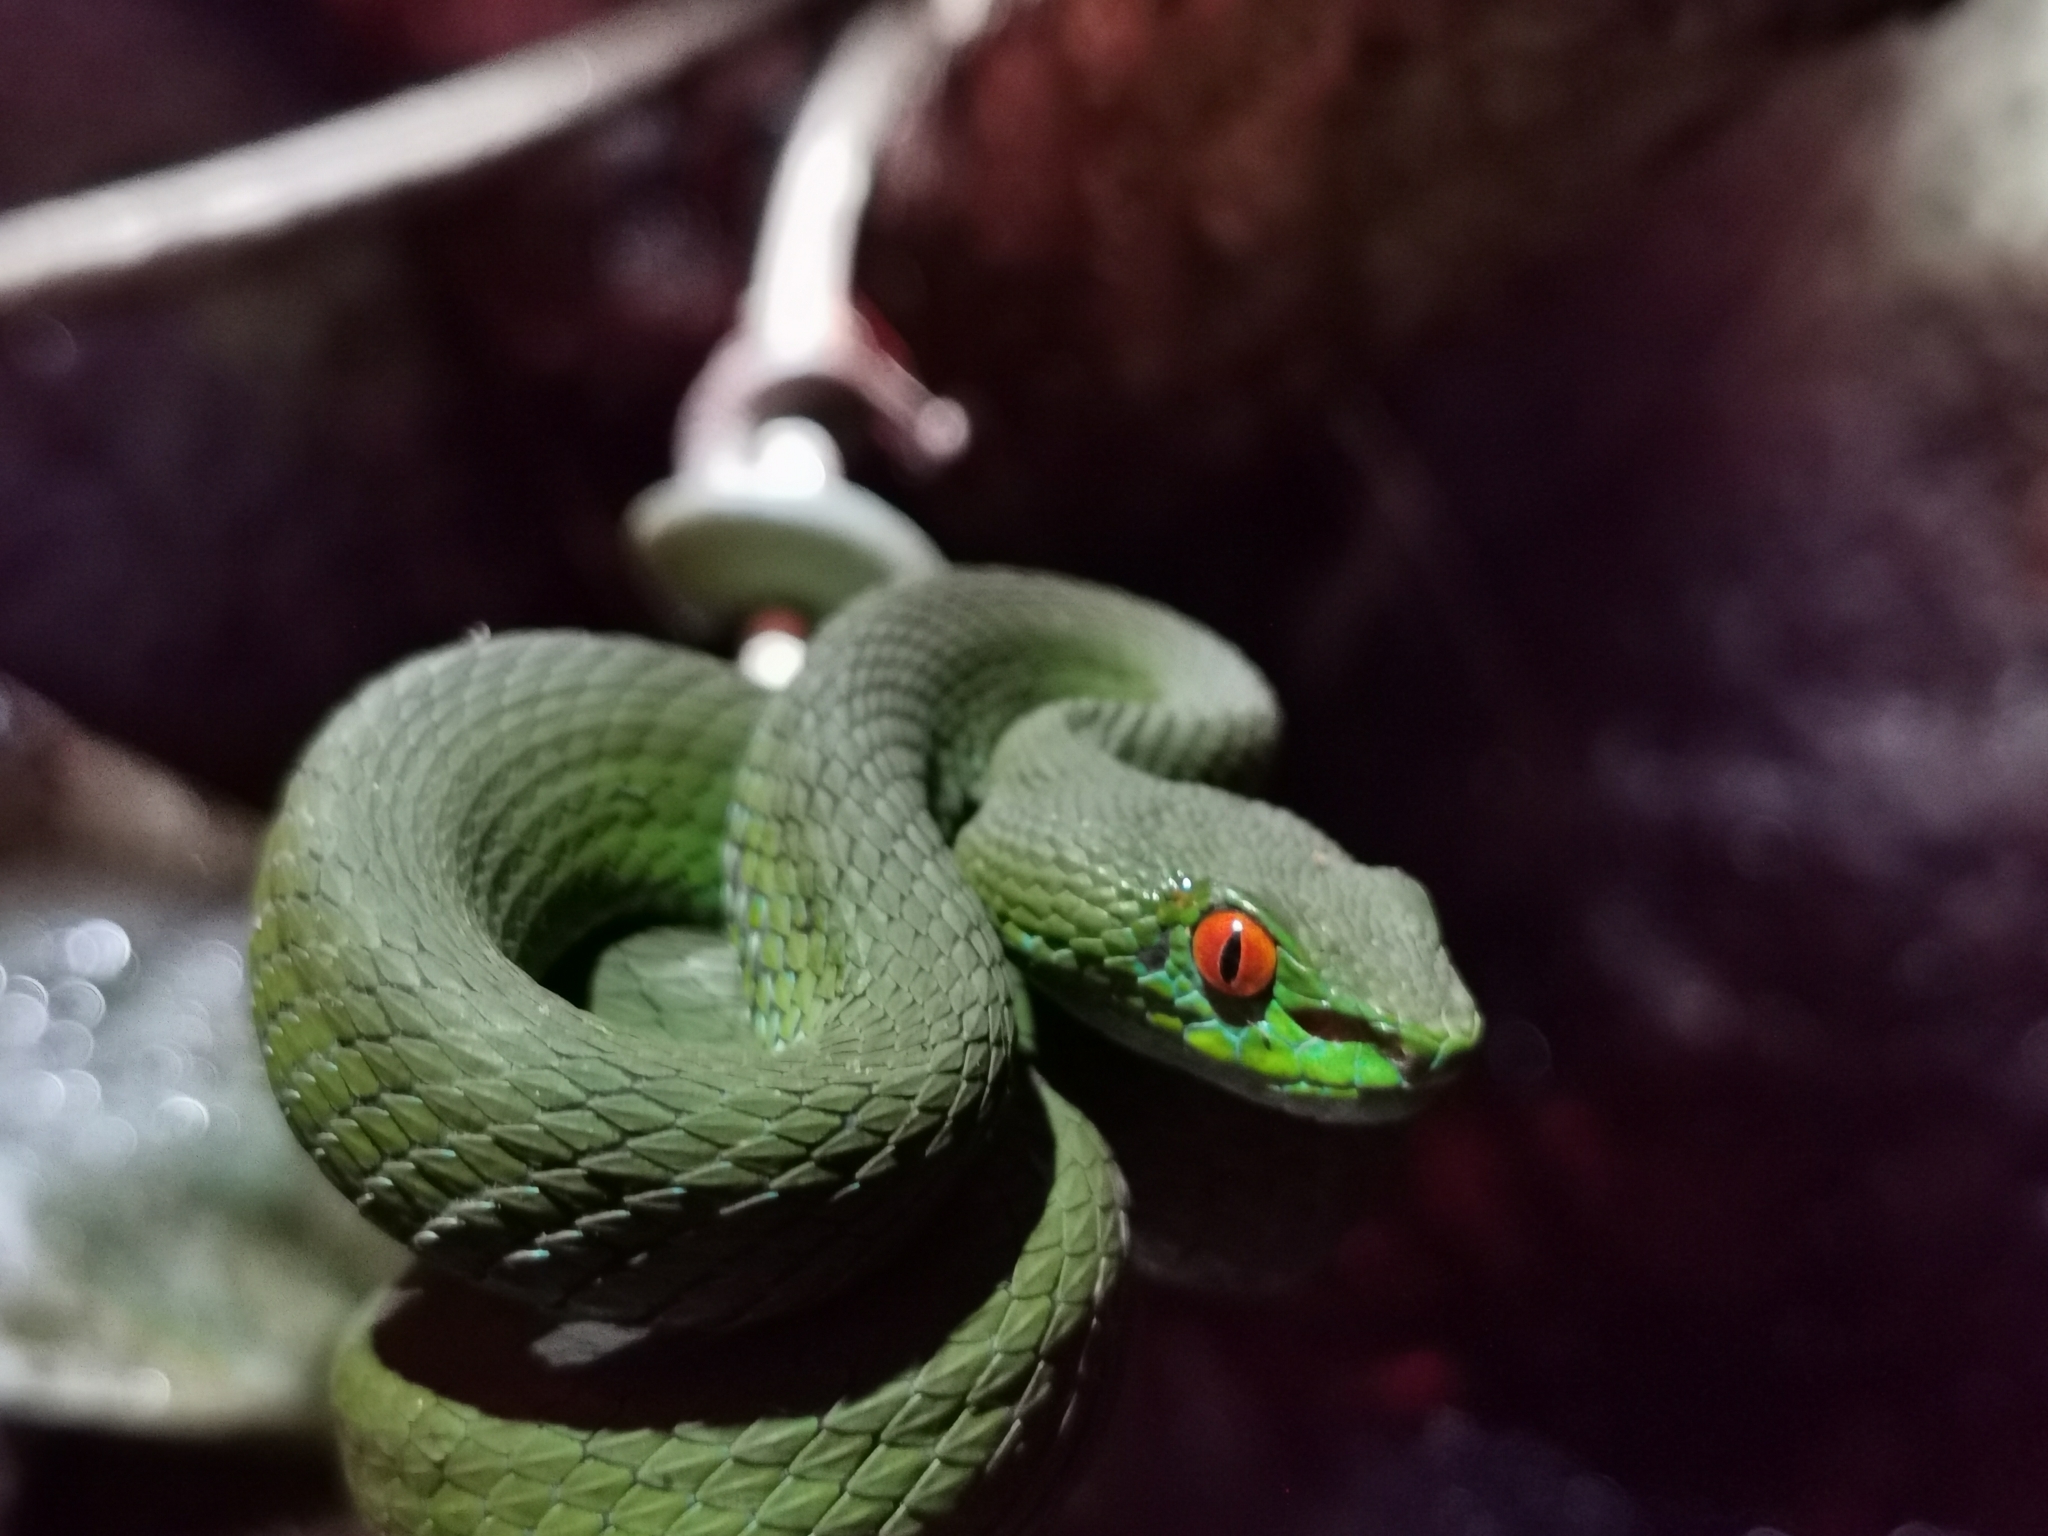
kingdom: Animalia
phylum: Chordata
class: Squamata
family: Viperidae
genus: Craspedocephalus
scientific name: Craspedocephalus rubeus
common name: Ruby-eyed green pitviper
